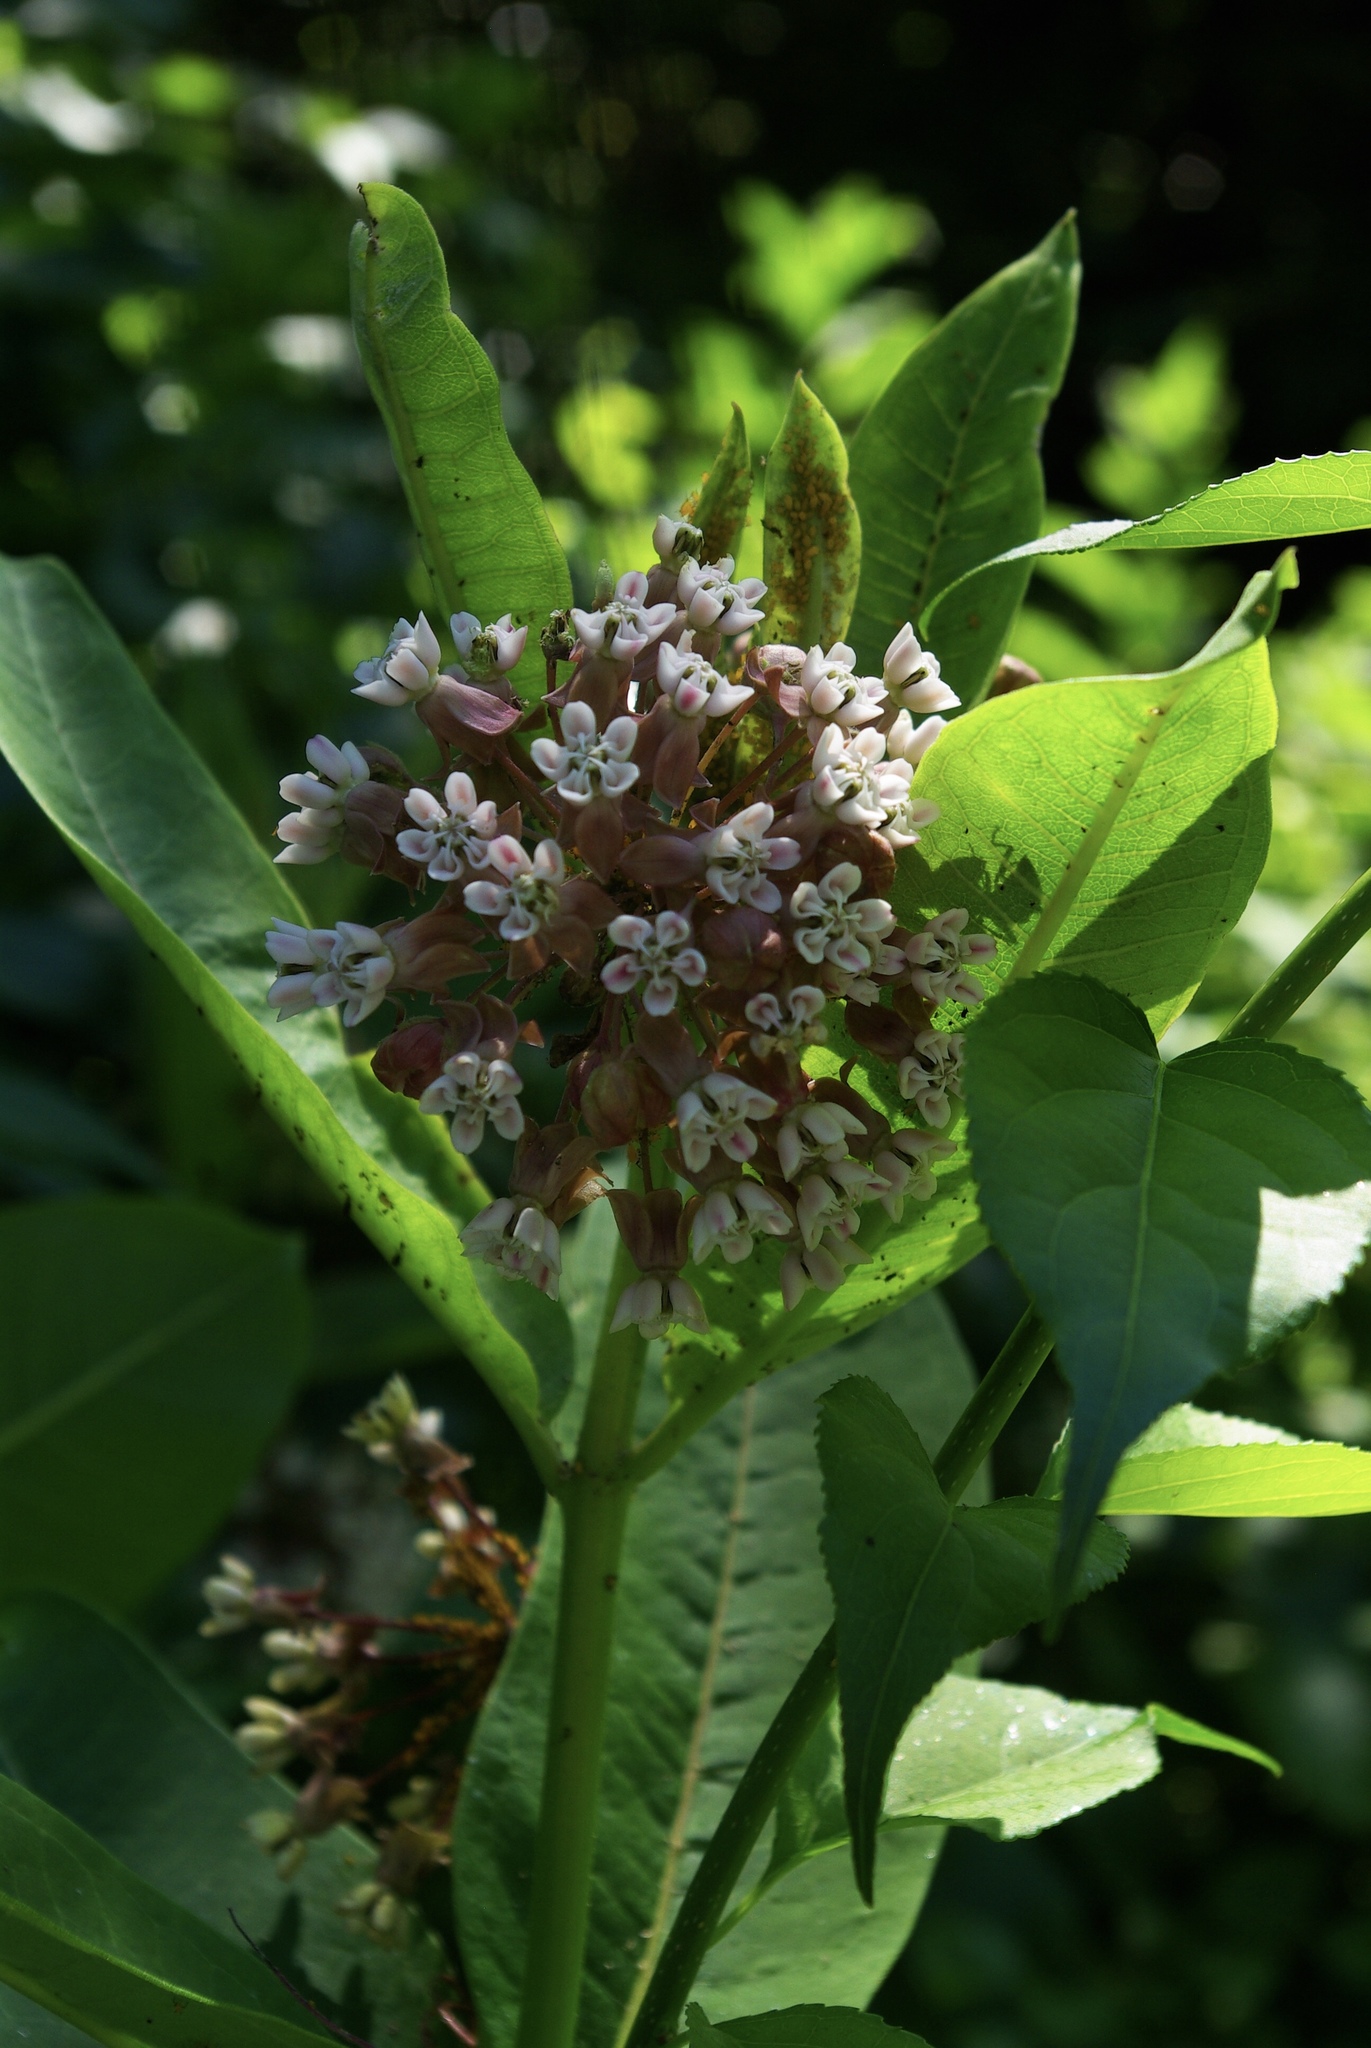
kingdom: Plantae
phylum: Tracheophyta
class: Magnoliopsida
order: Gentianales
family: Apocynaceae
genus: Asclepias
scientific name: Asclepias syriaca
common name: Common milkweed
